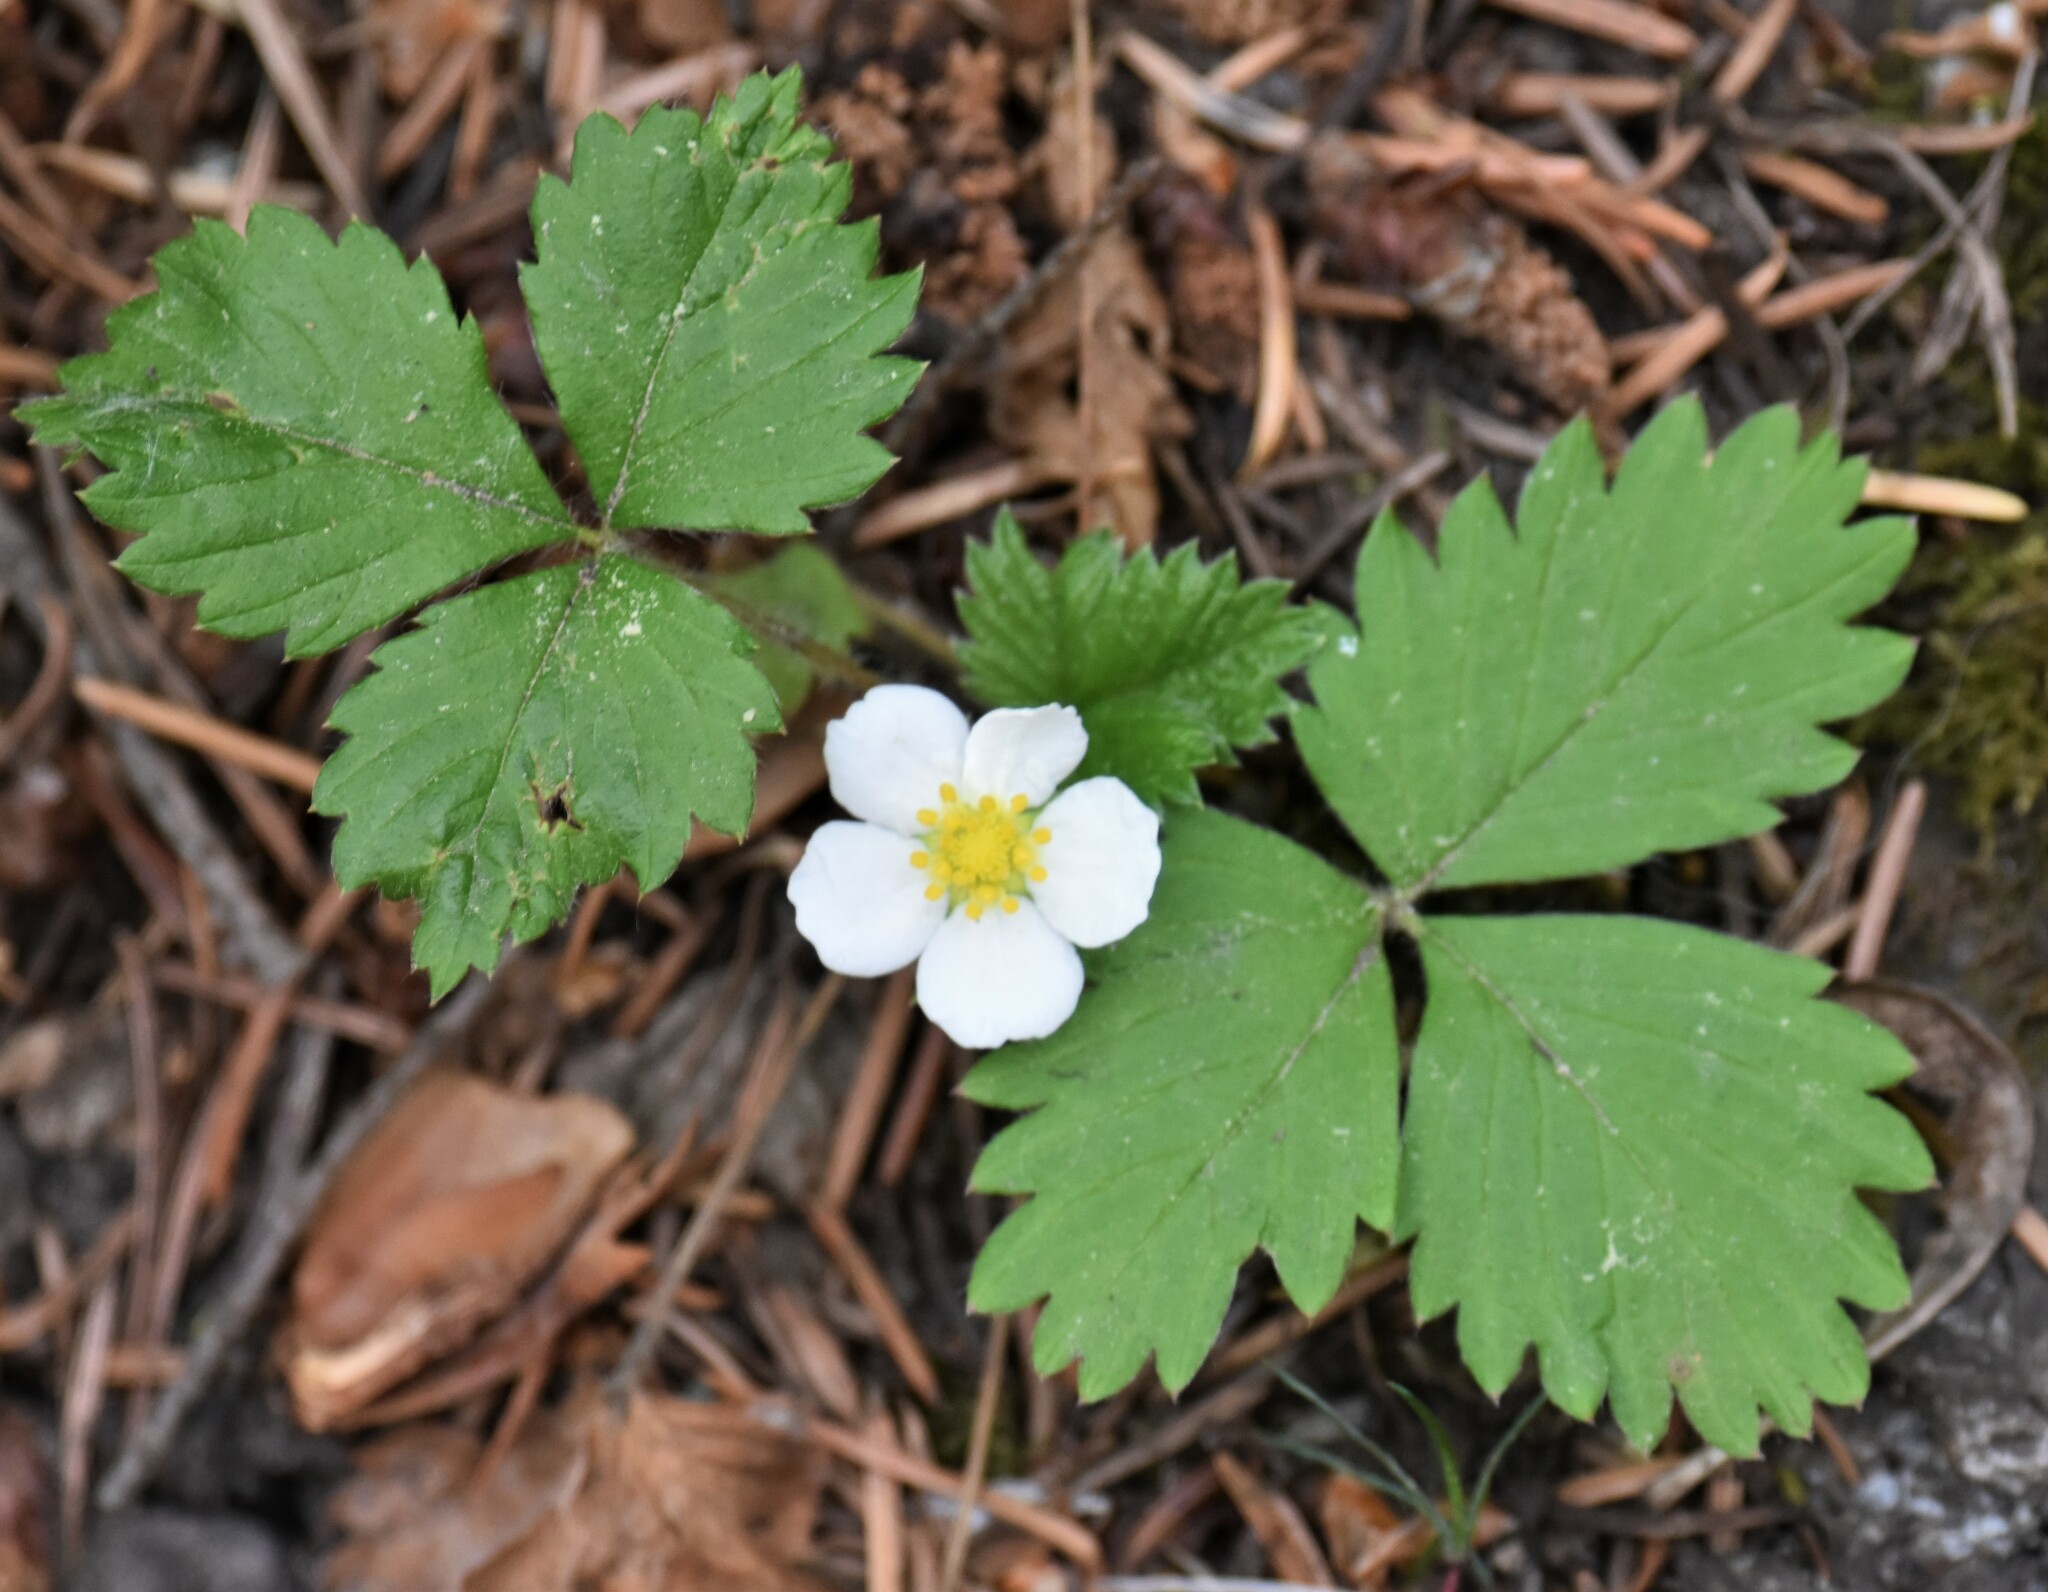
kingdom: Plantae
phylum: Tracheophyta
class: Magnoliopsida
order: Rosales
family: Rosaceae
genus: Fragaria
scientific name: Fragaria virginiana
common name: Thickleaved wild strawberry
